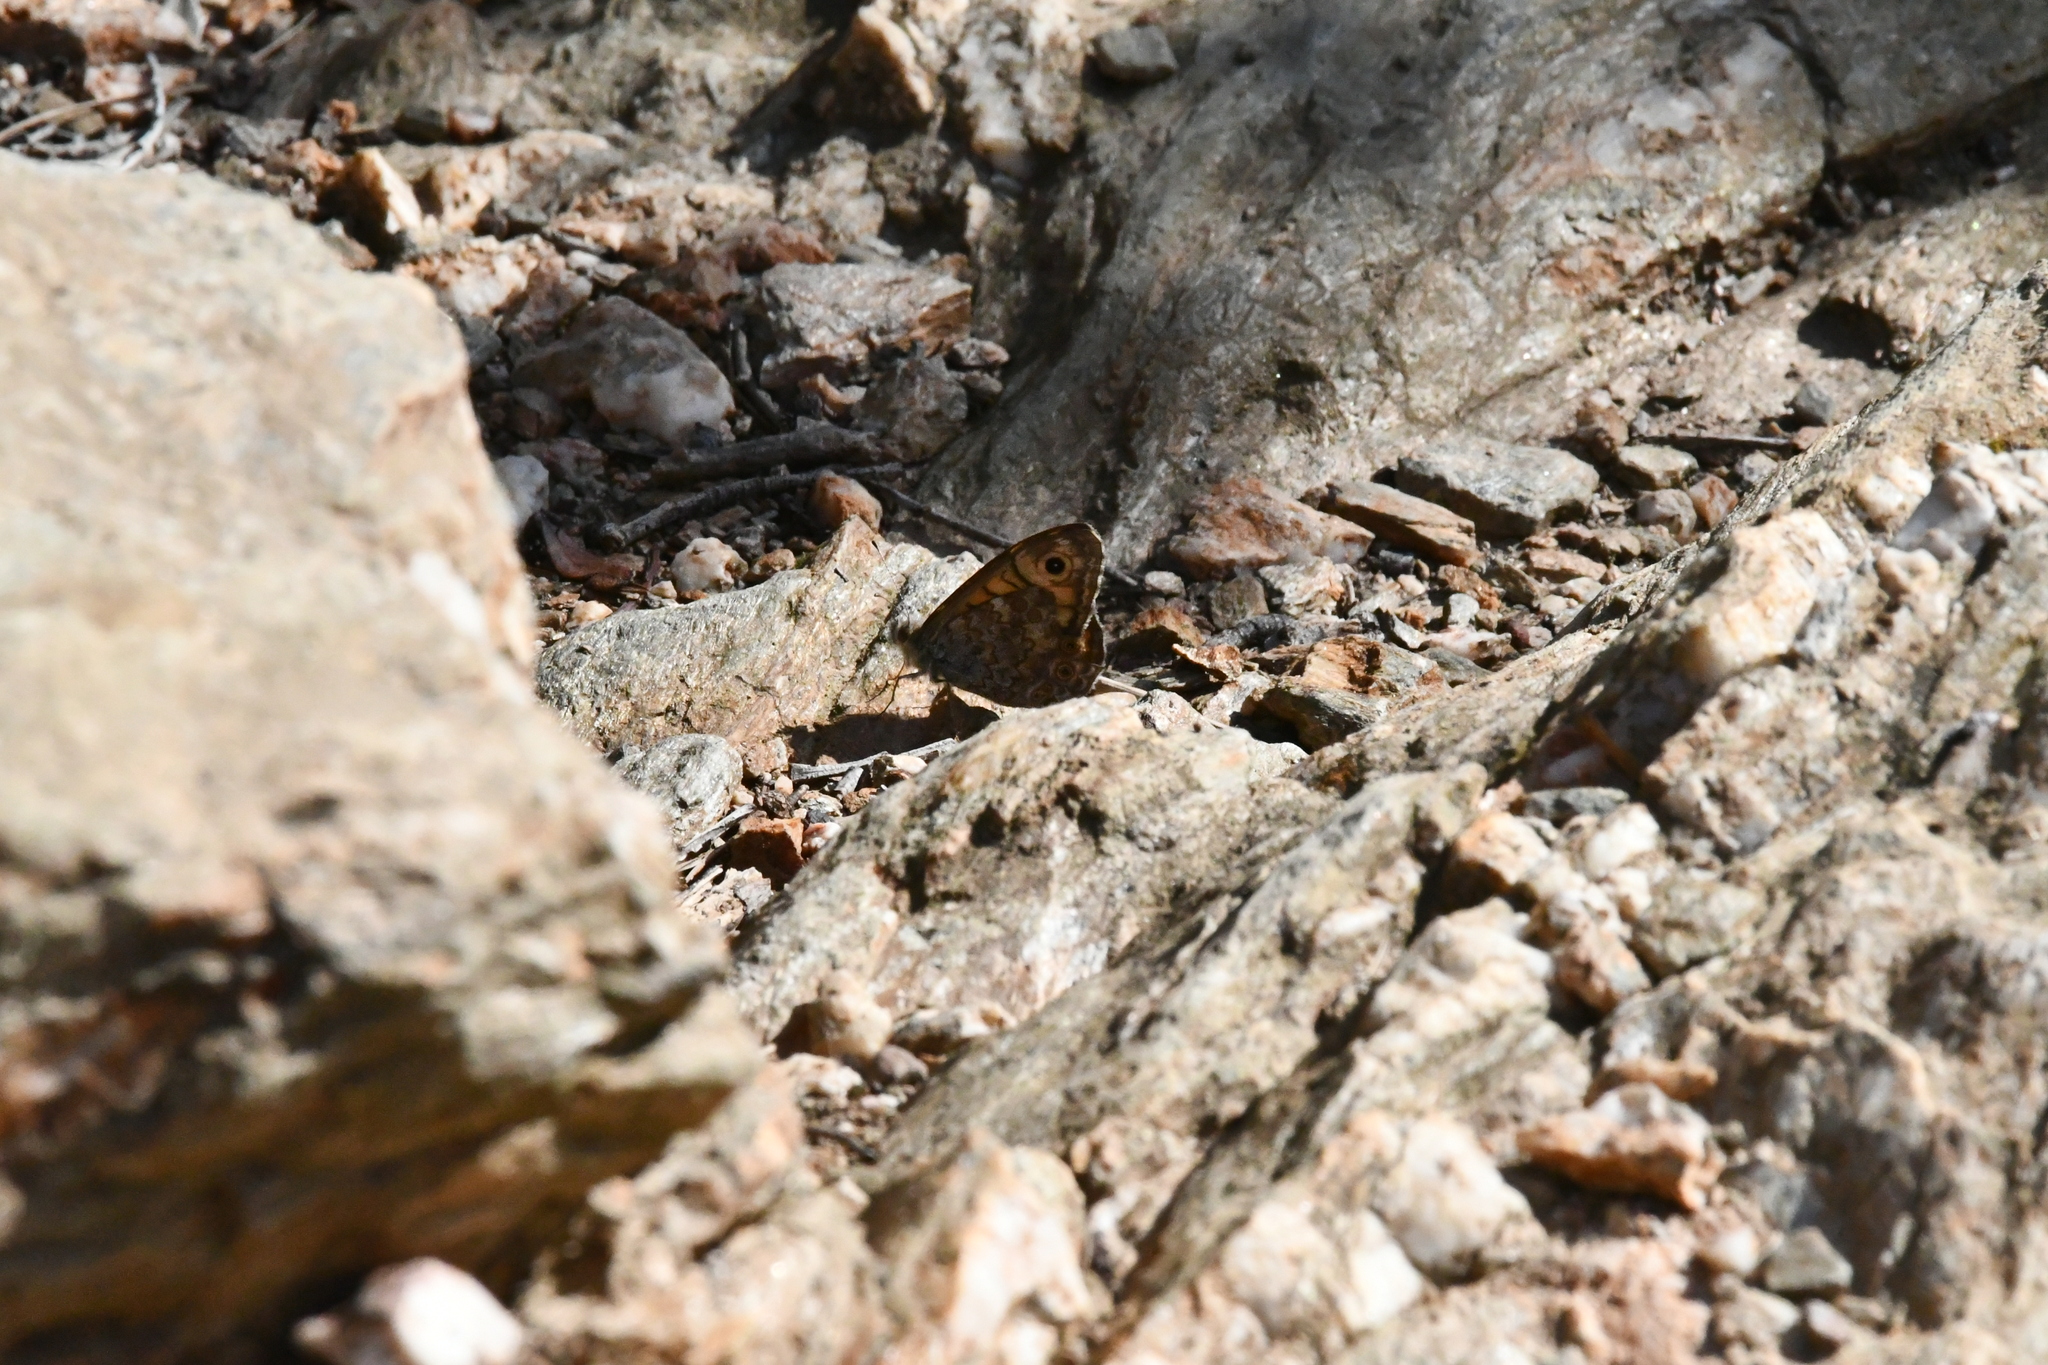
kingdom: Animalia
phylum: Arthropoda
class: Insecta
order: Lepidoptera
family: Nymphalidae
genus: Pararge
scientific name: Pararge Lasiommata megera
